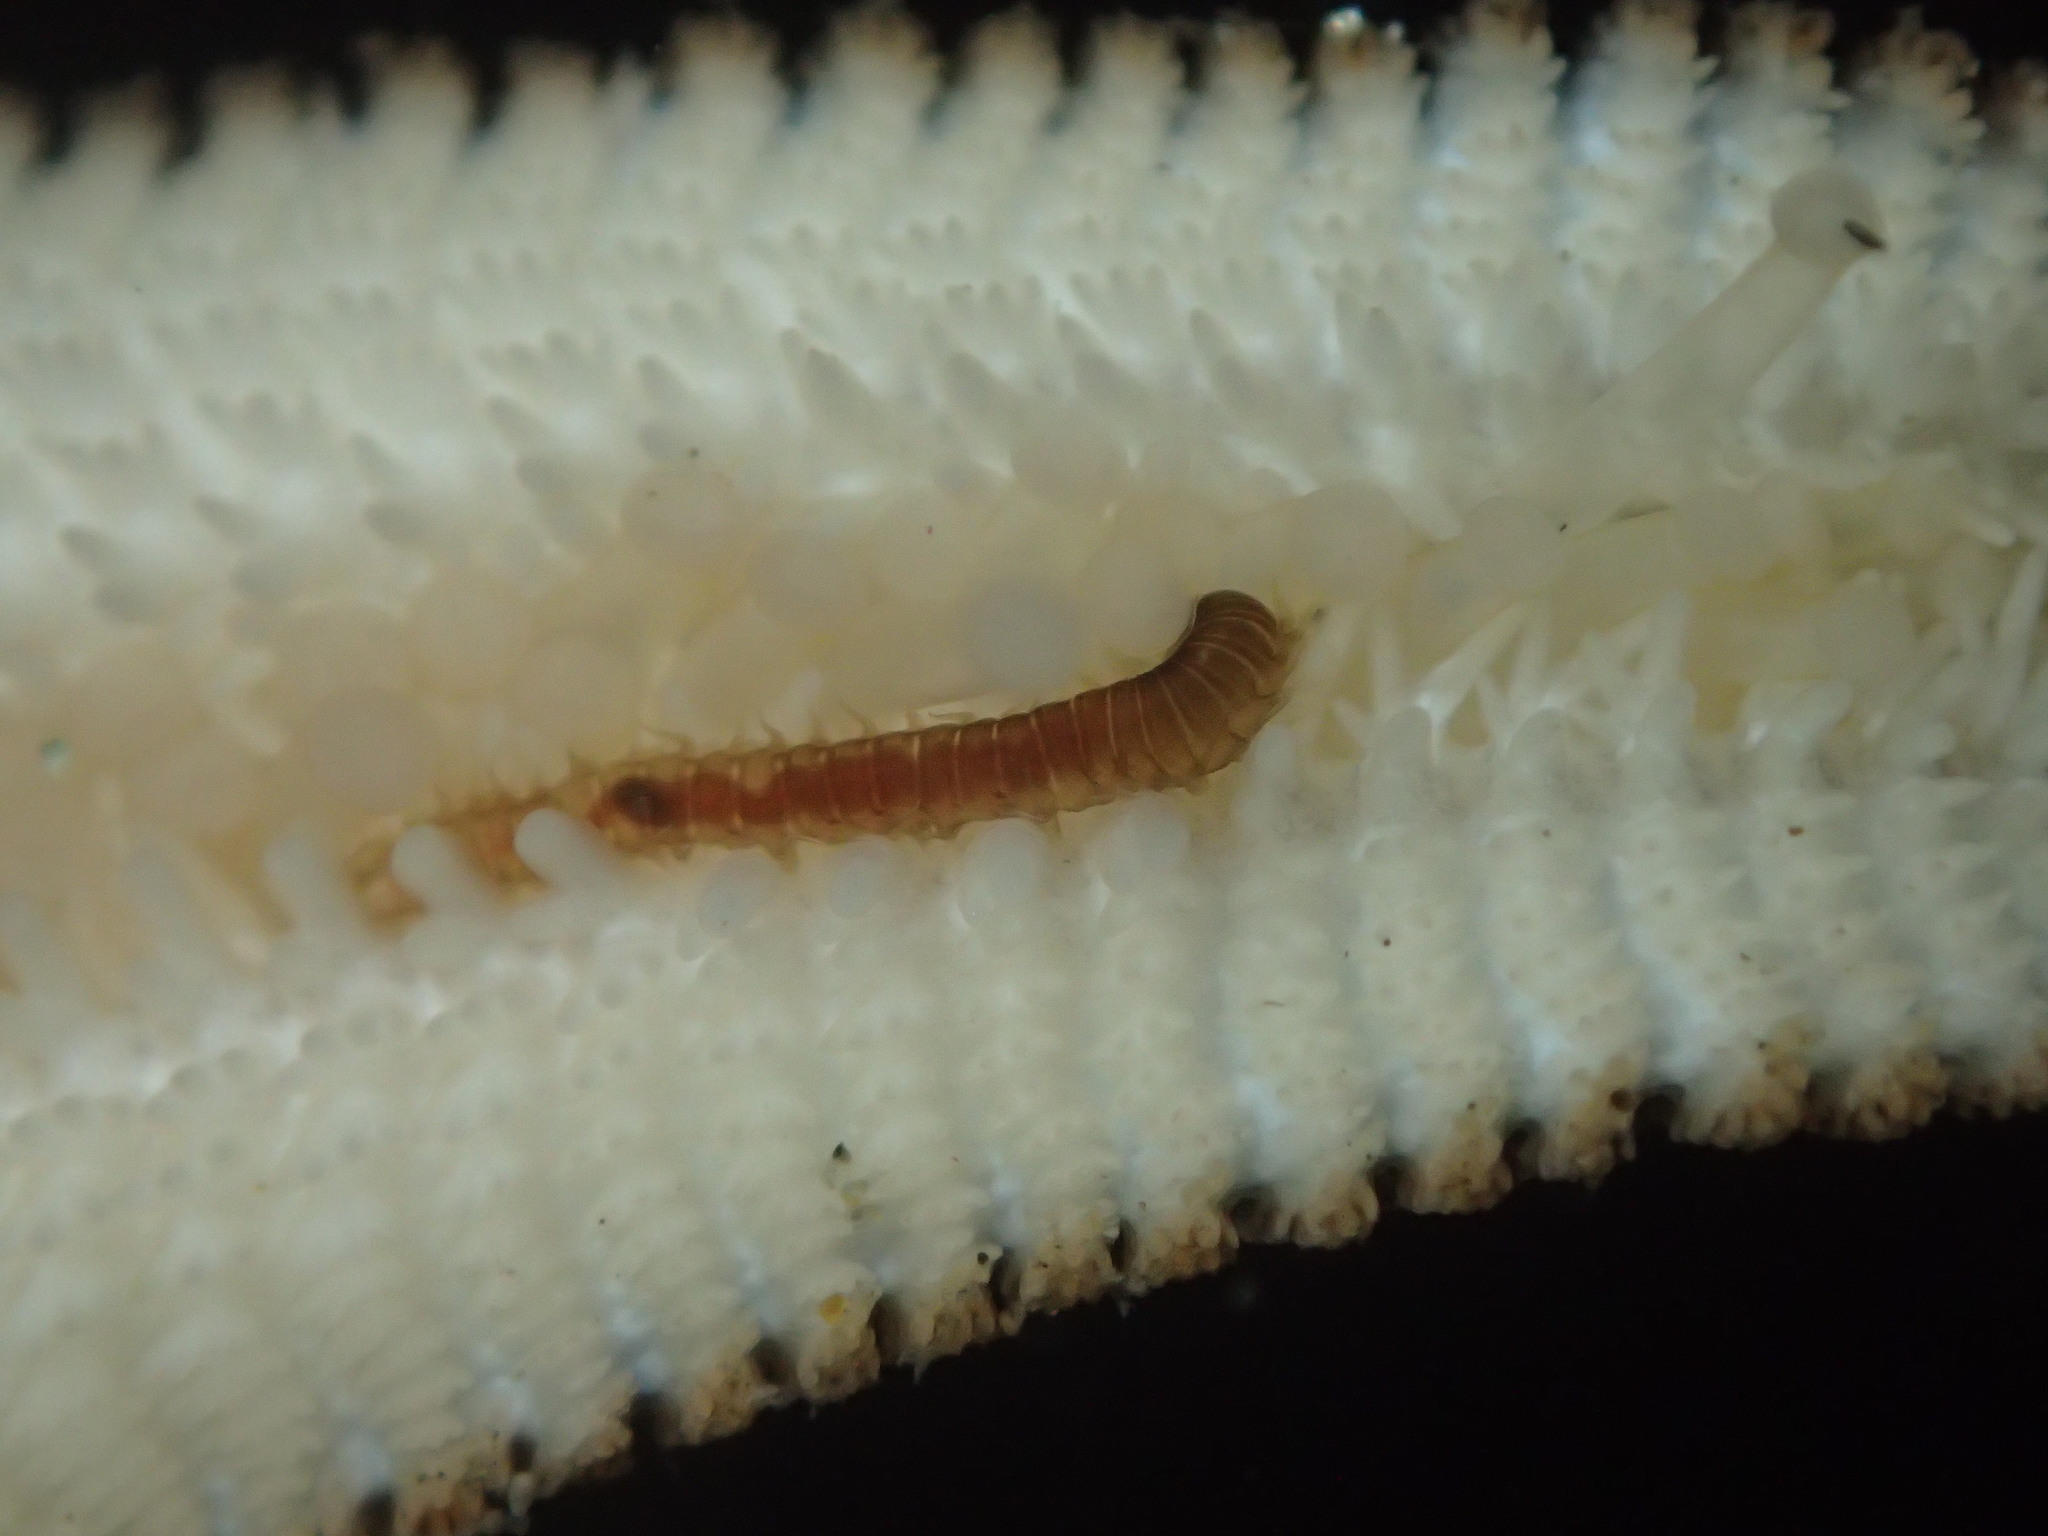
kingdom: Animalia
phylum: Annelida
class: Polychaeta
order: Phyllodocida
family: Hesionidae
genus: Oxydromus
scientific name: Oxydromus pugettensis
